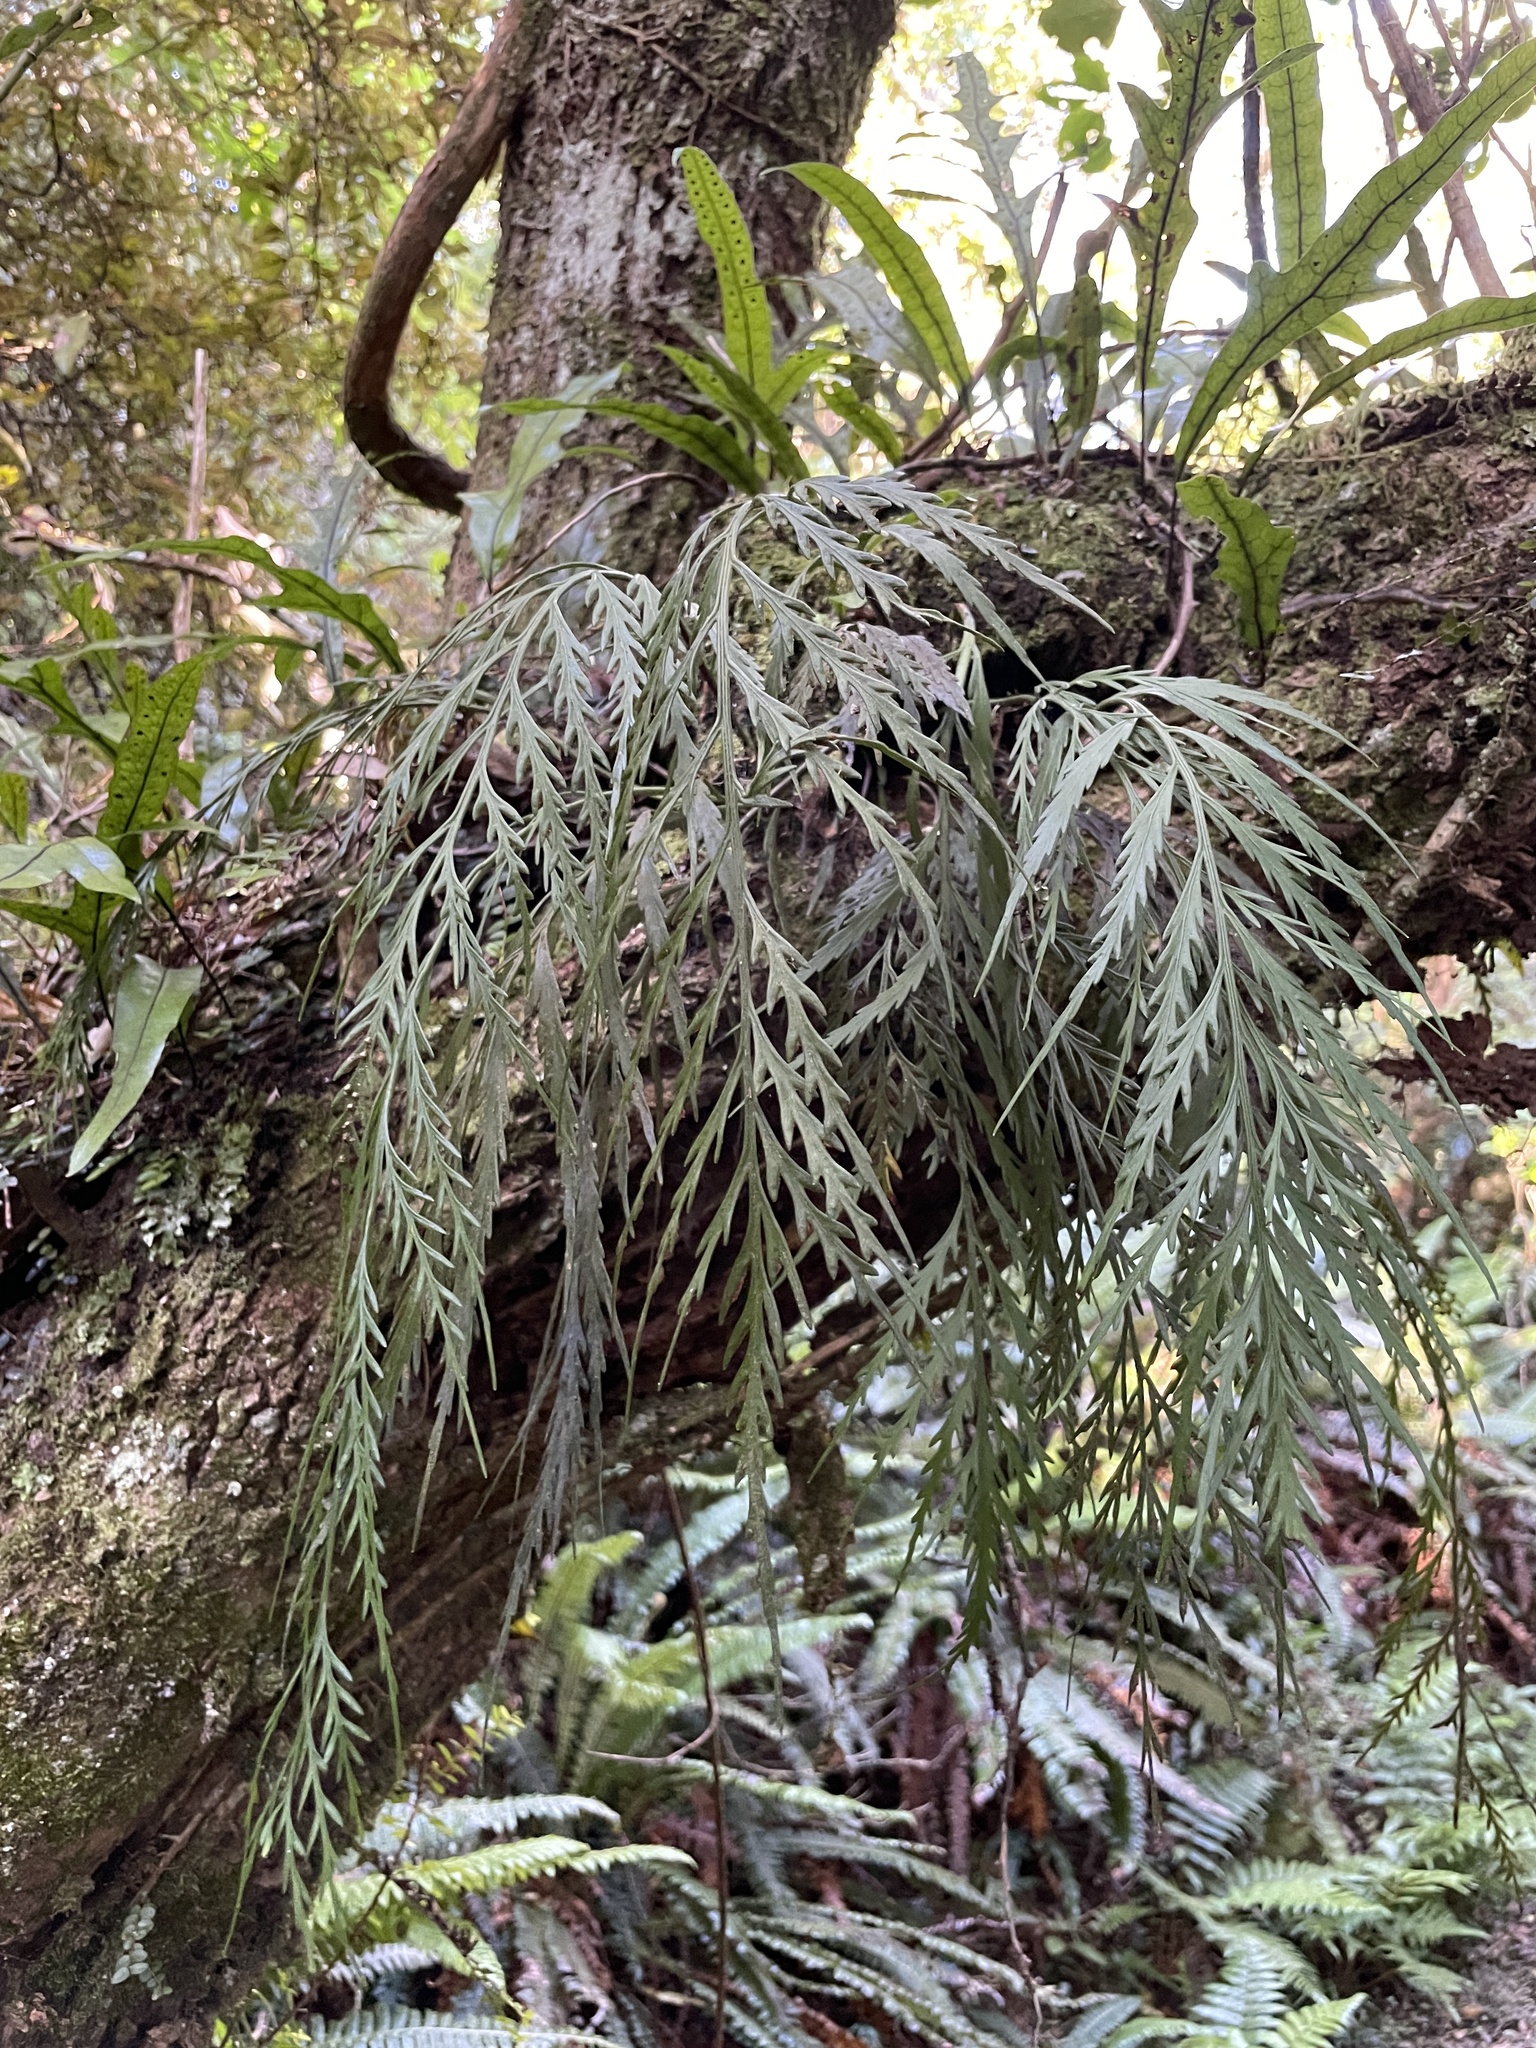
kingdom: Plantae
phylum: Tracheophyta
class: Polypodiopsida
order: Polypodiales
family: Aspleniaceae
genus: Asplenium
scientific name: Asplenium flaccidum
